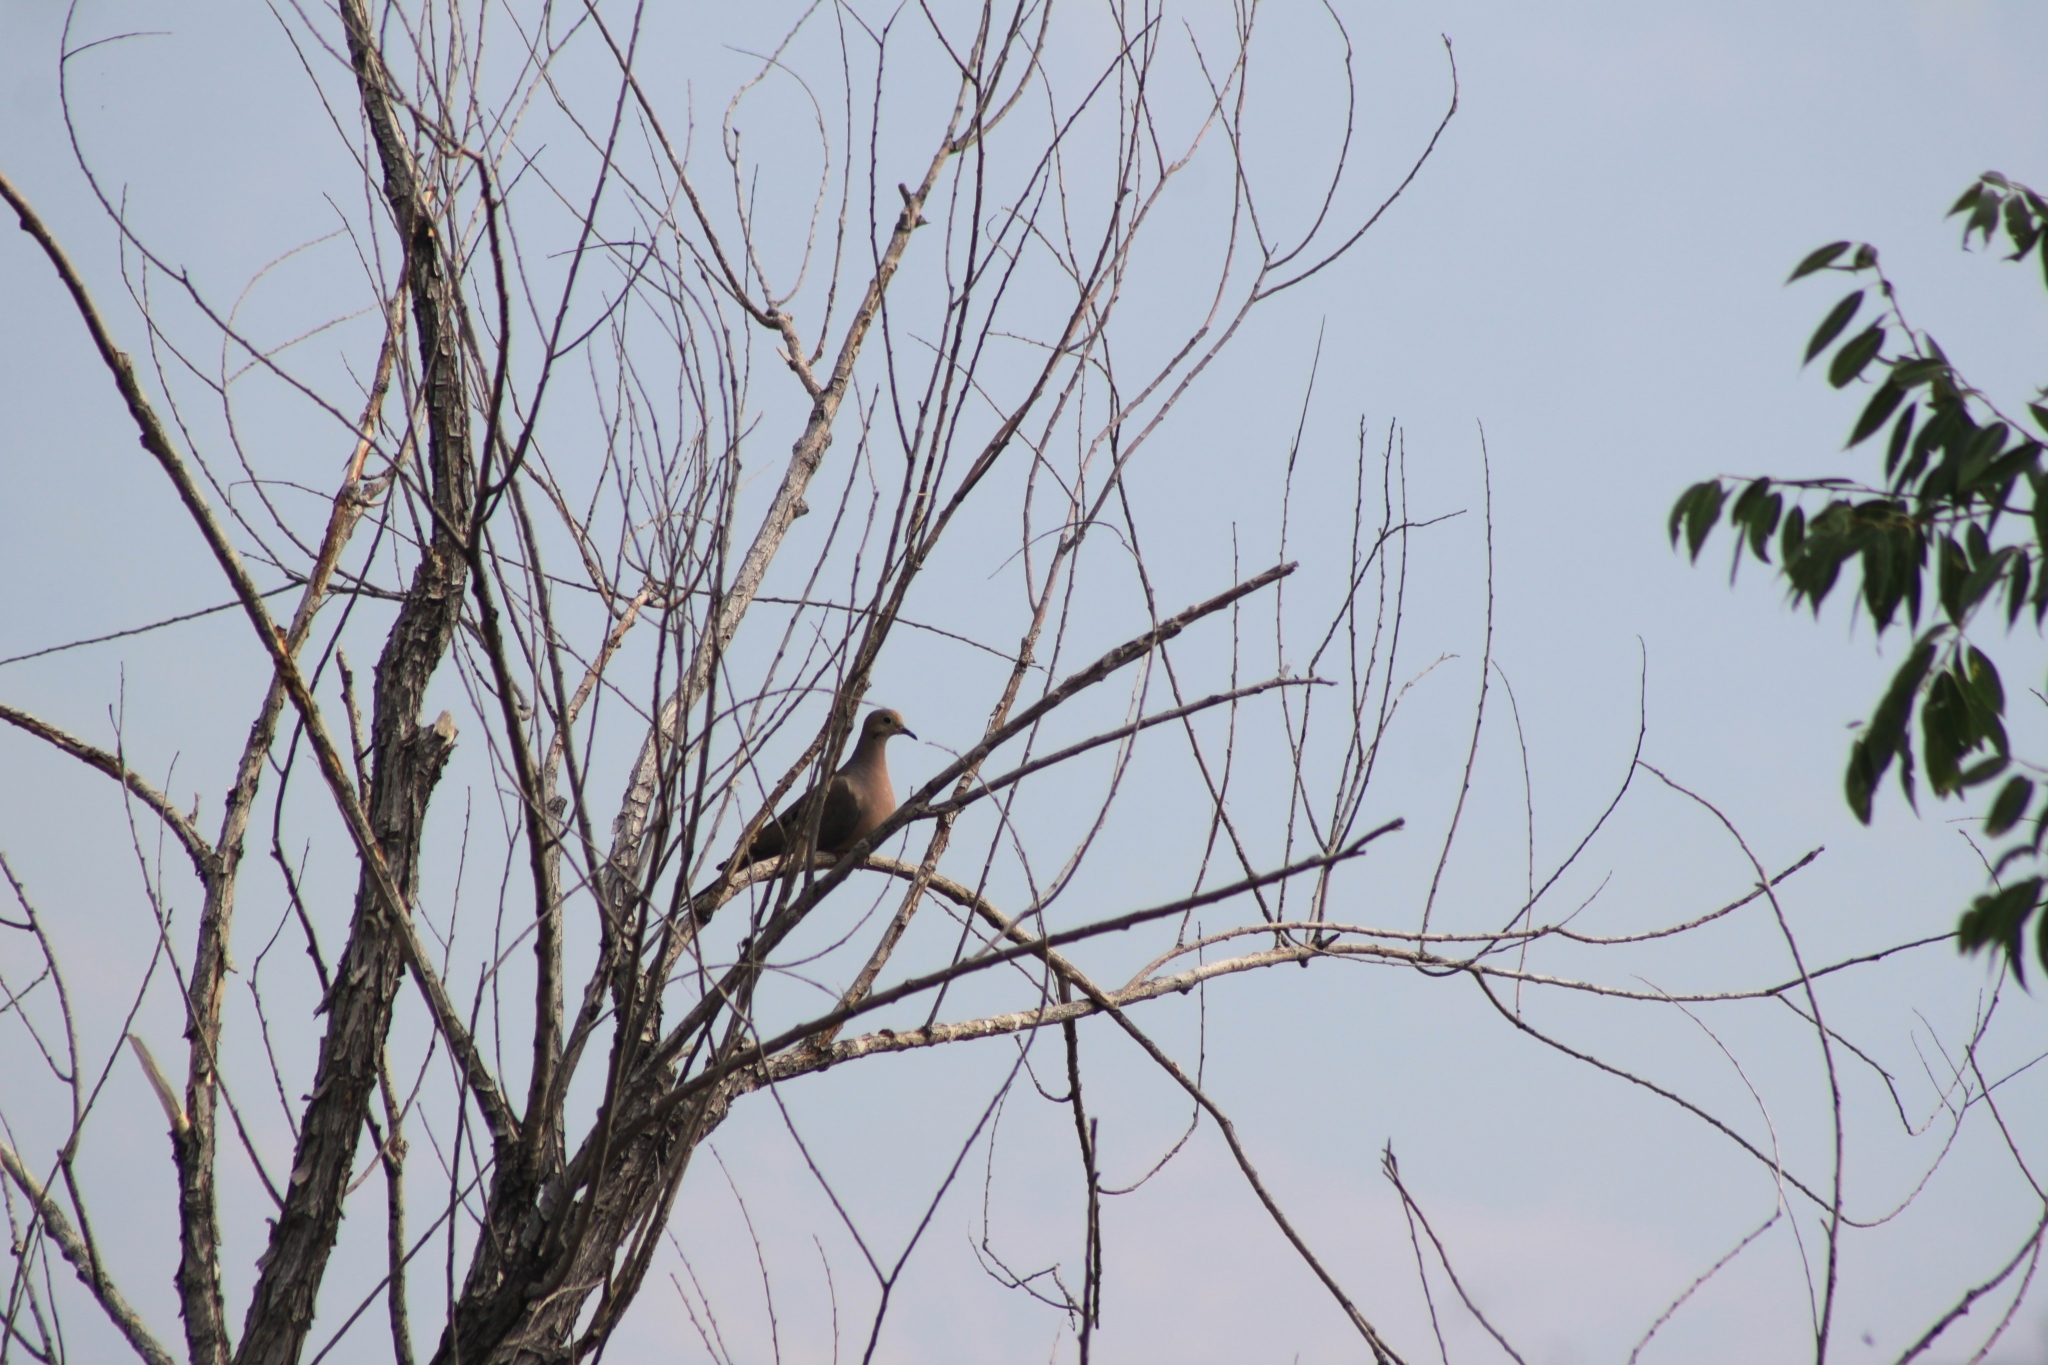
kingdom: Animalia
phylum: Chordata
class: Aves
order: Columbiformes
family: Columbidae
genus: Zenaida
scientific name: Zenaida macroura
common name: Mourning dove
